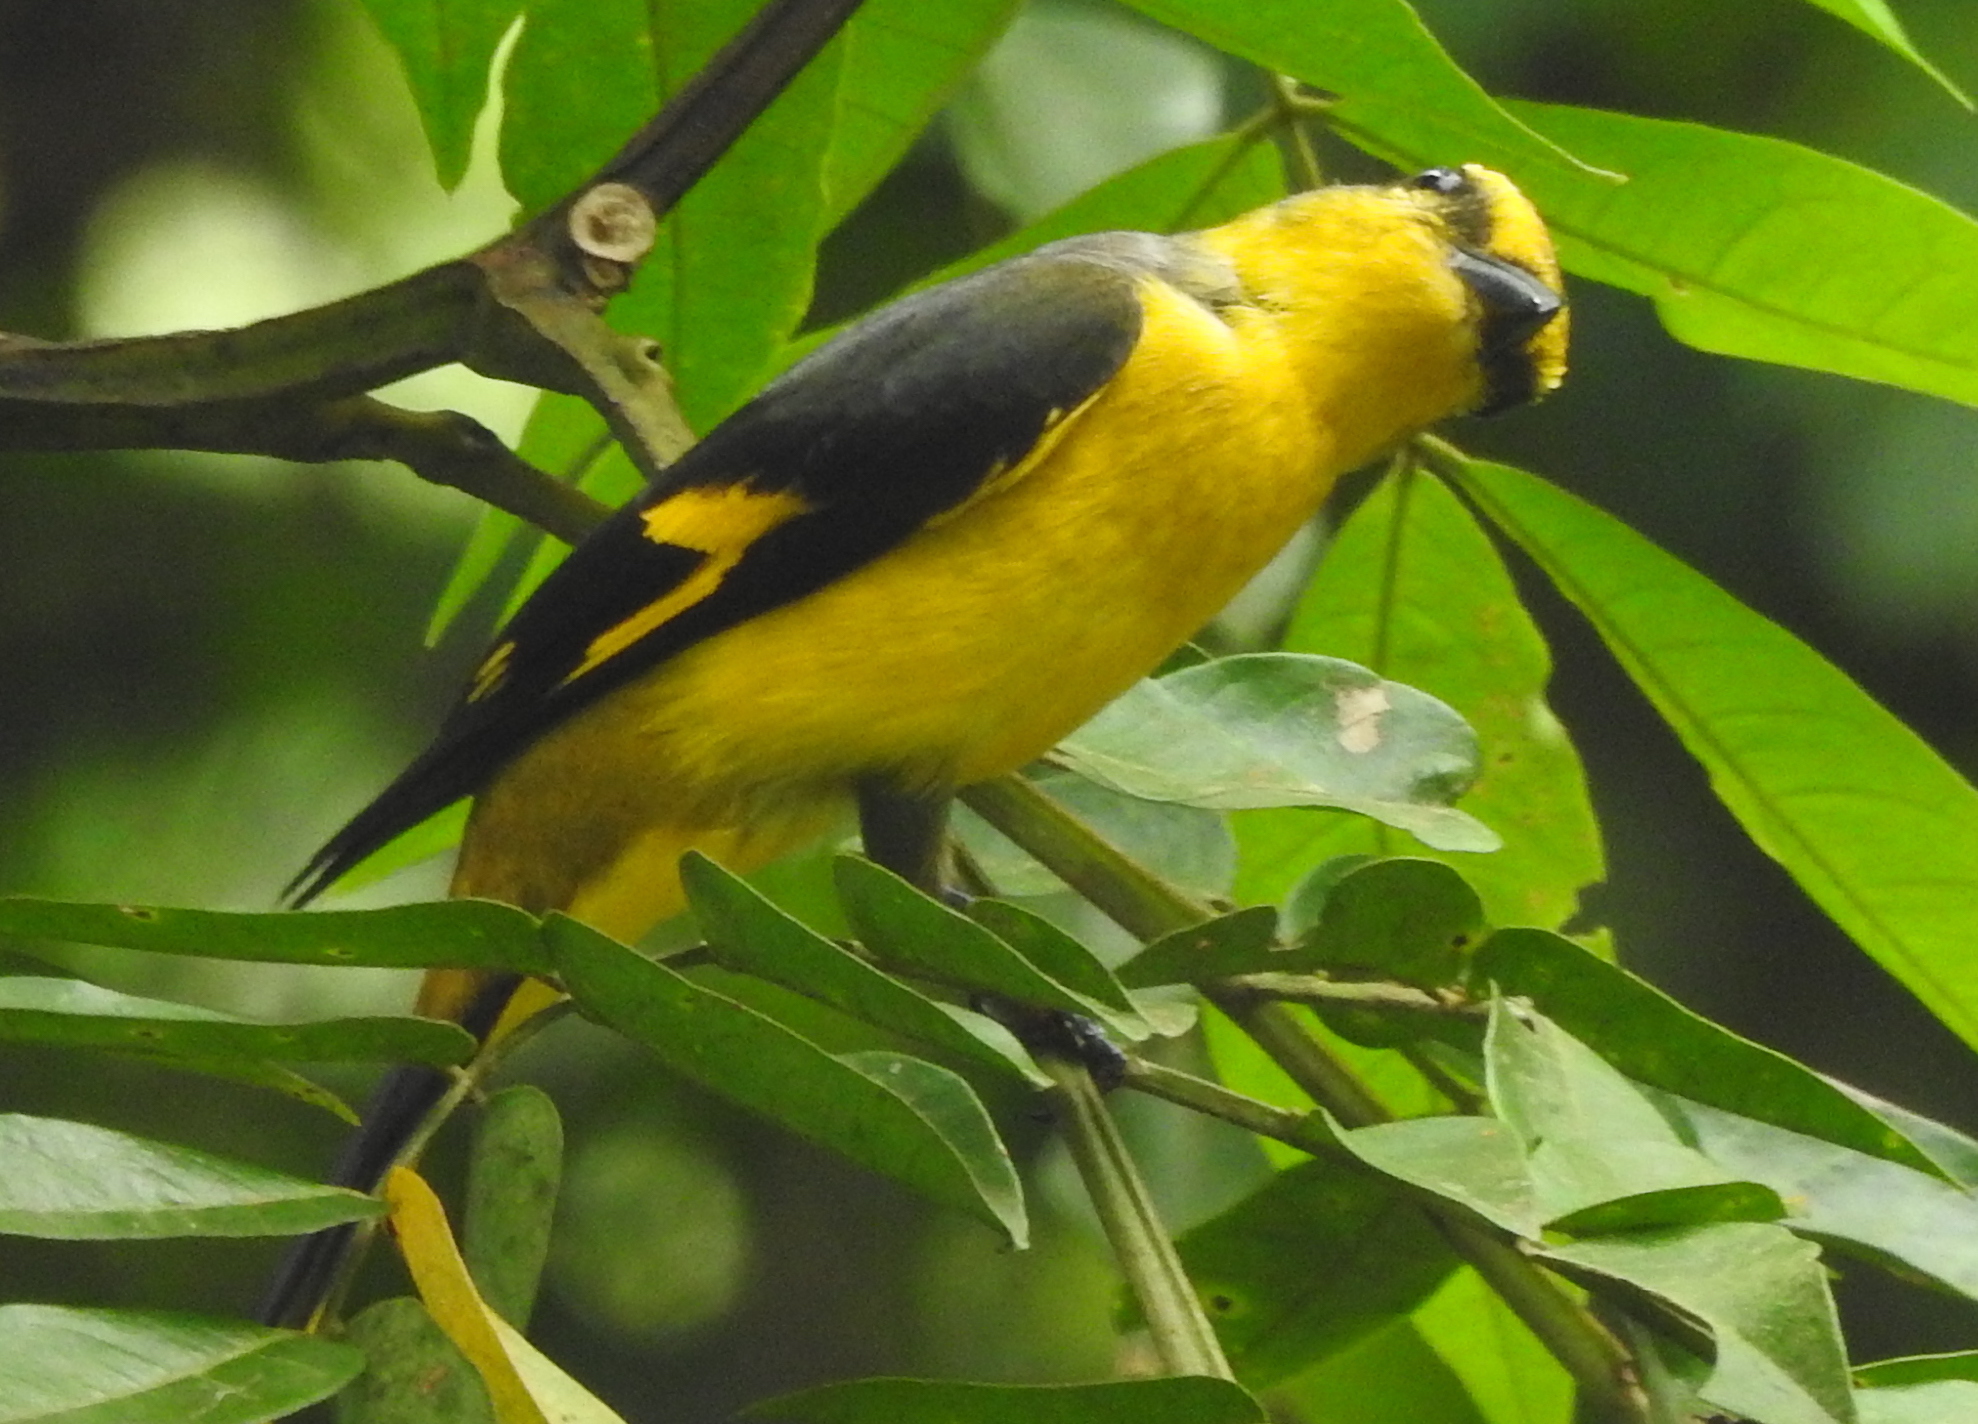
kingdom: Animalia
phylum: Chordata
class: Aves
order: Passeriformes
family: Campephagidae
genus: Pericrocotus
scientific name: Pericrocotus speciosus
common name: Scarlet minivet
